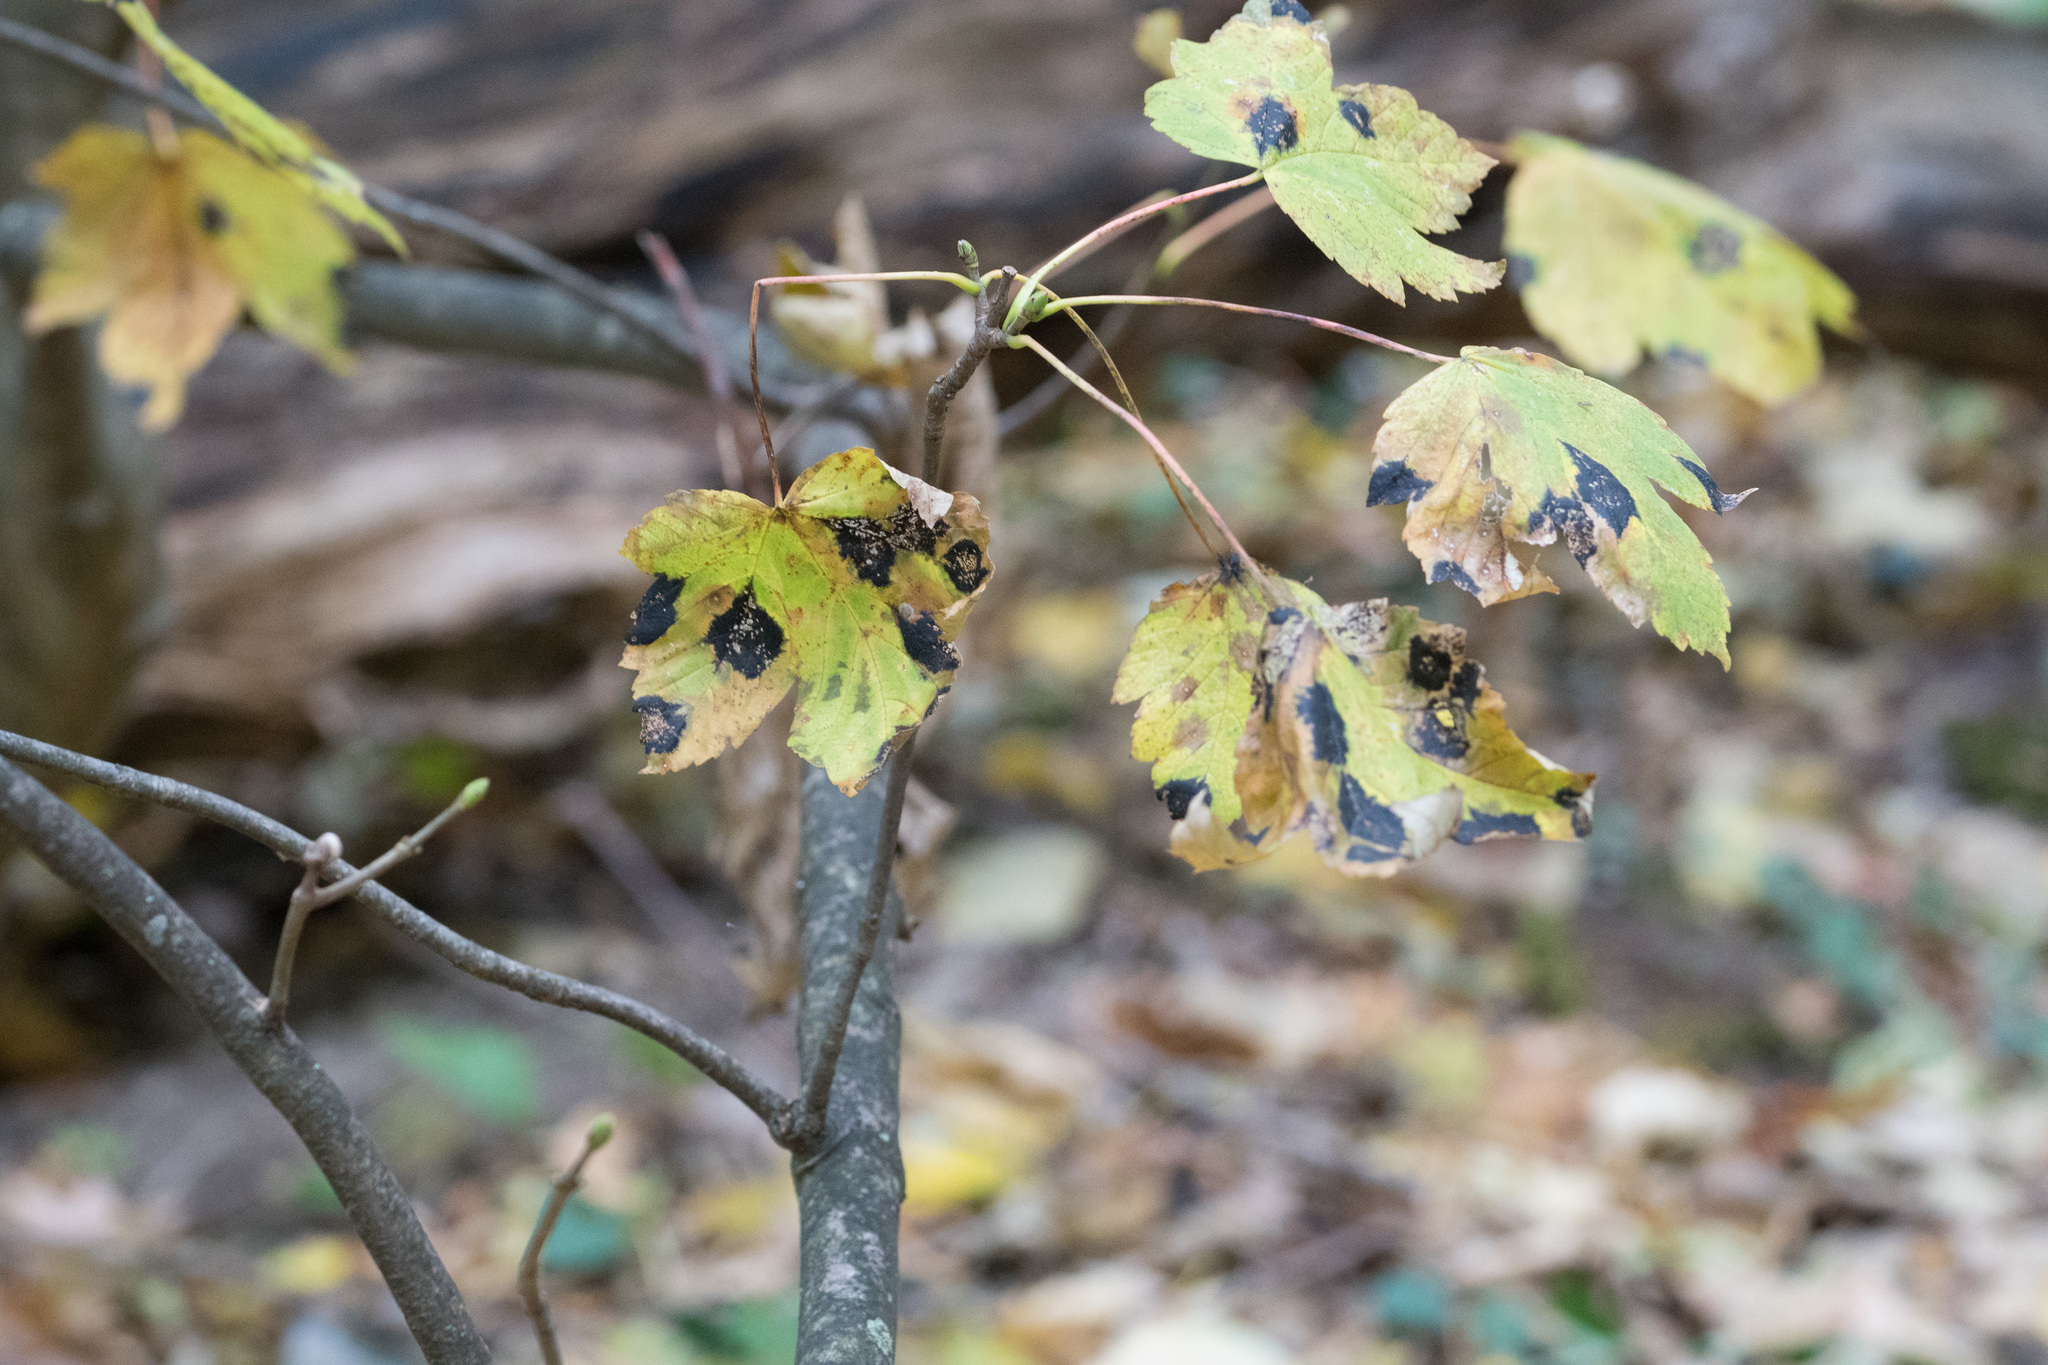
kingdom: Plantae
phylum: Tracheophyta
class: Magnoliopsida
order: Sapindales
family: Sapindaceae
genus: Acer
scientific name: Acer pseudoplatanus
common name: Sycamore
